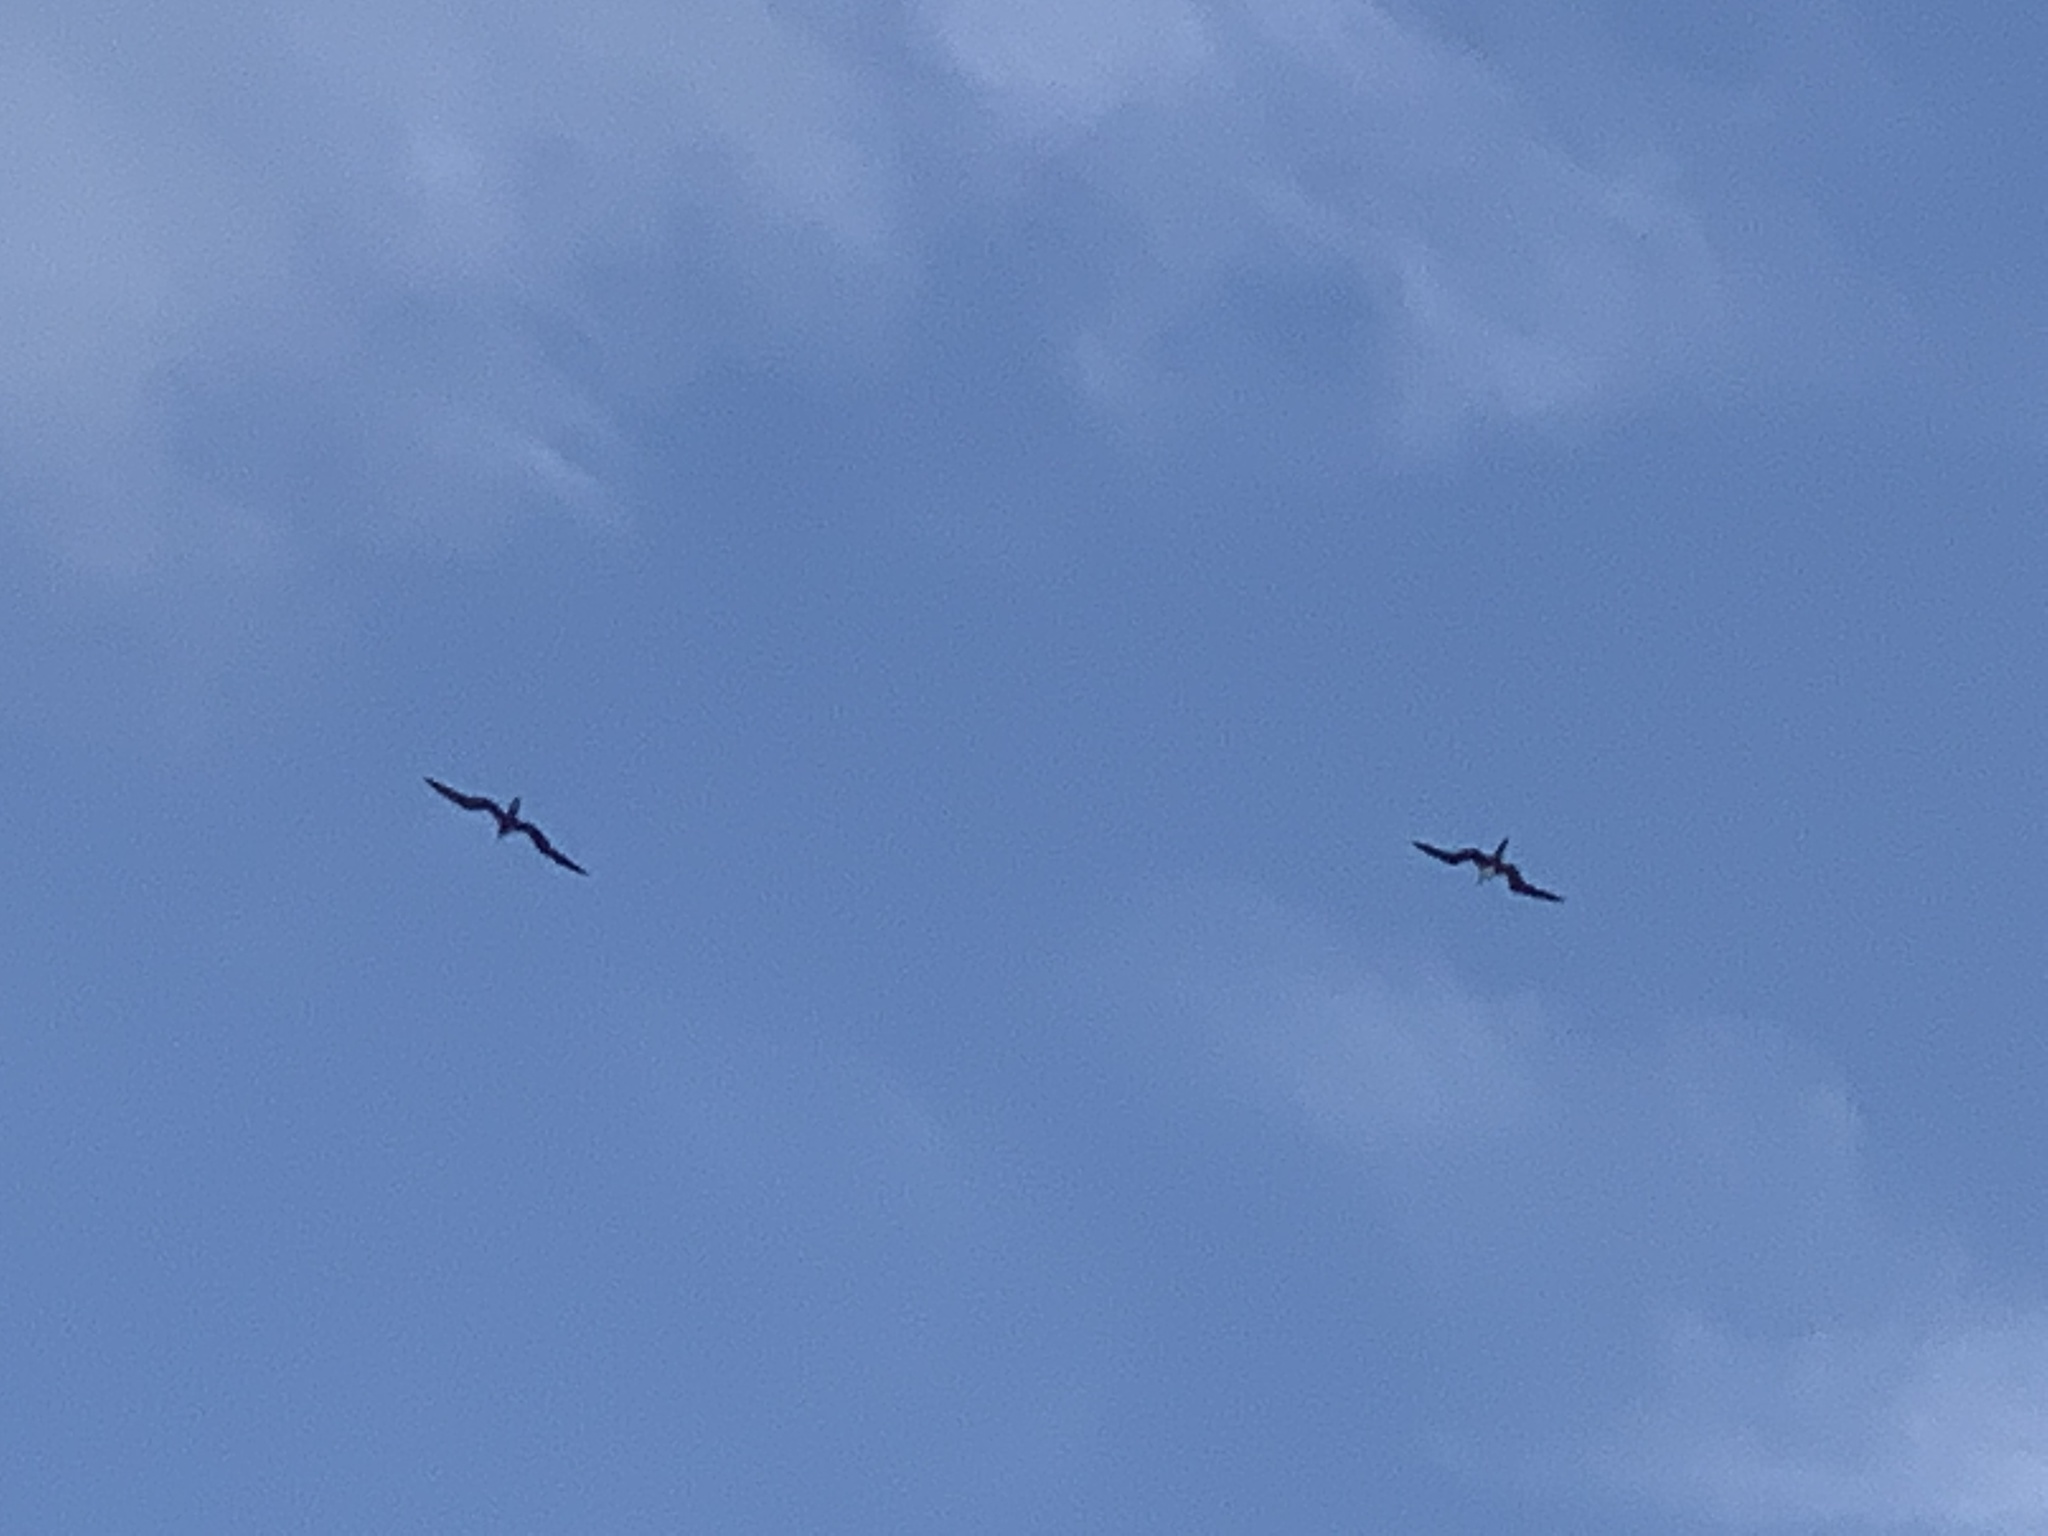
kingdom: Animalia
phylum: Chordata
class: Aves
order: Suliformes
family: Fregatidae
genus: Fregata
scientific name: Fregata magnificens
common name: Magnificent frigatebird
